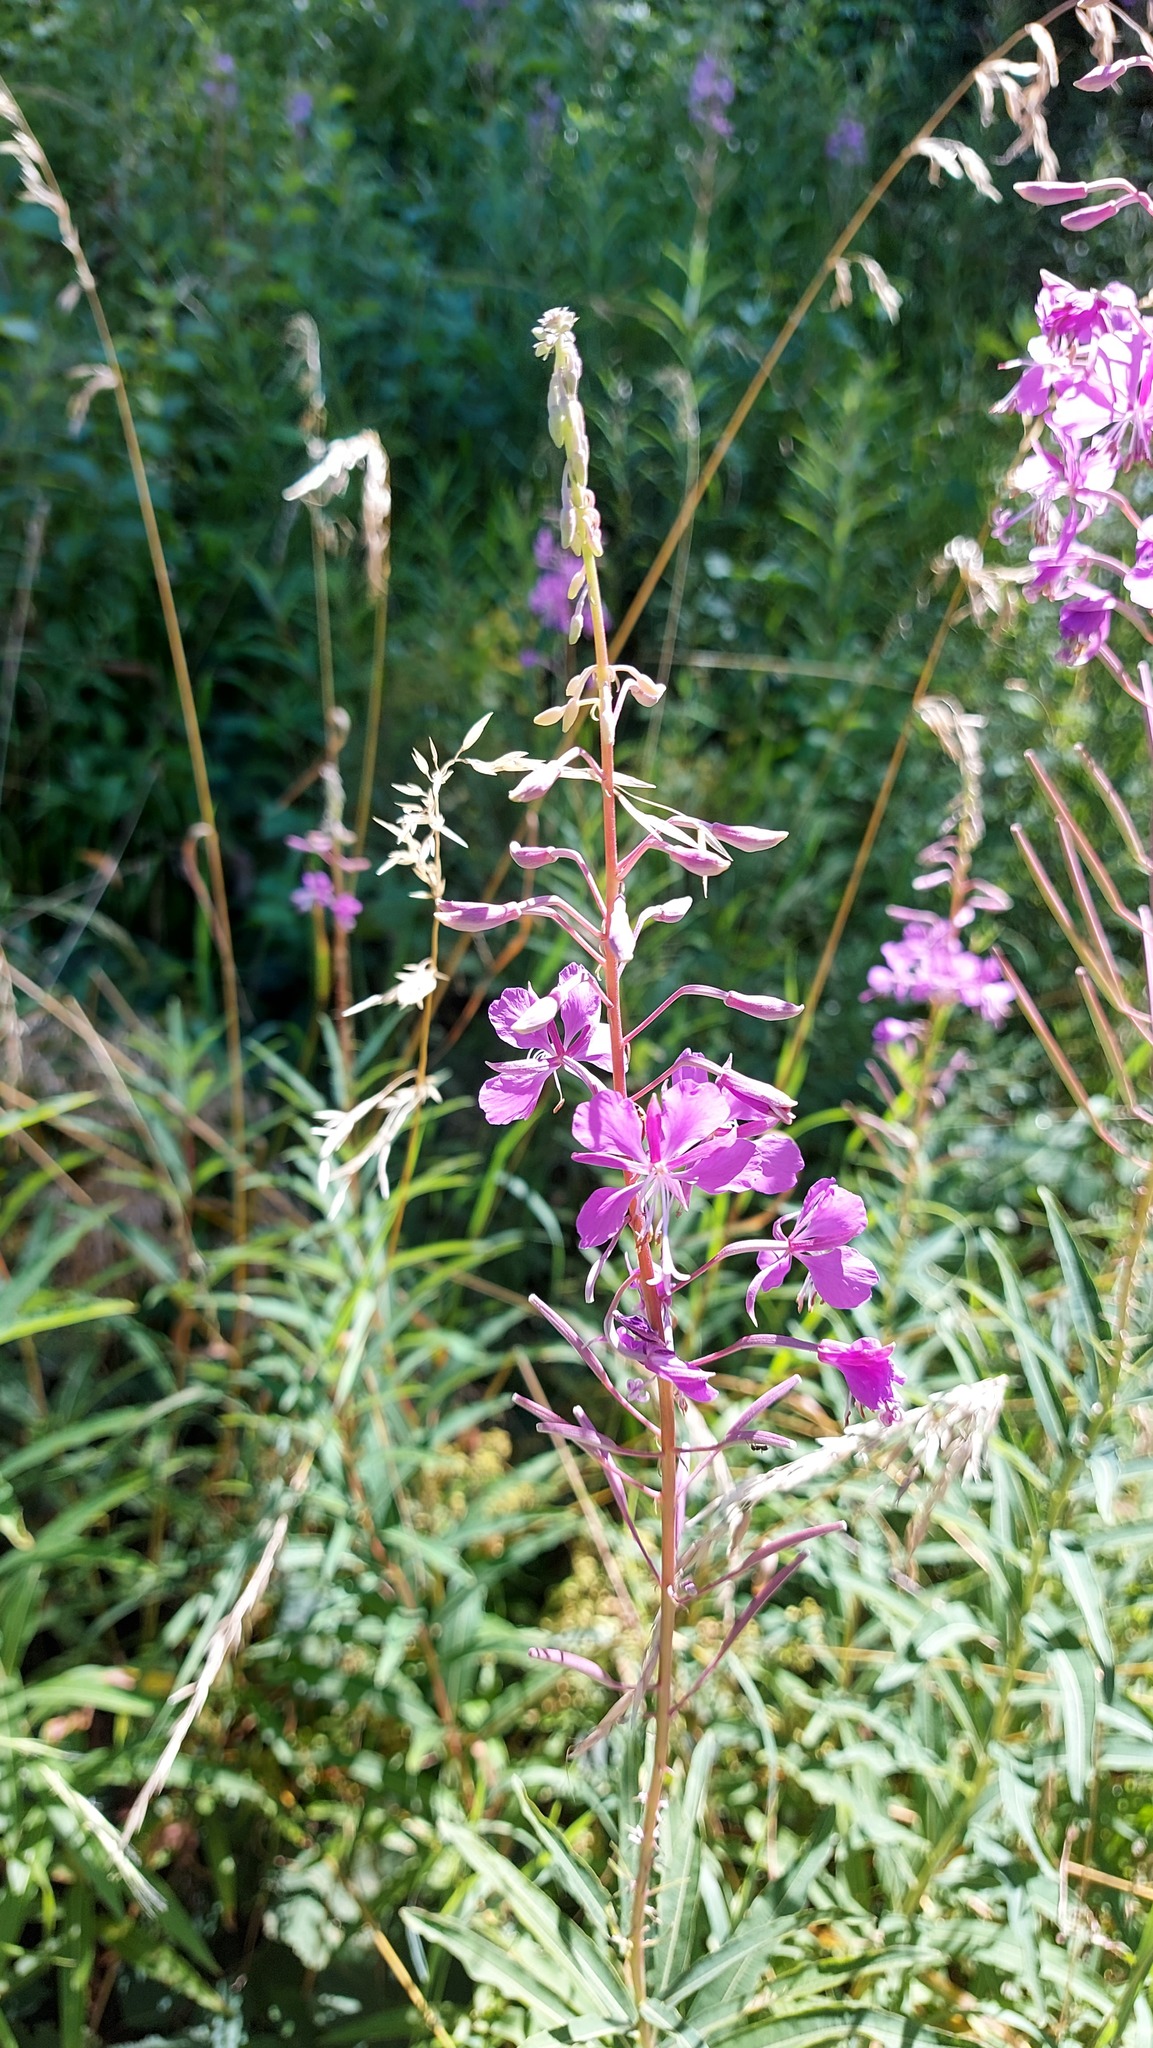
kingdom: Plantae
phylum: Tracheophyta
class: Magnoliopsida
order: Myrtales
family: Onagraceae
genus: Chamaenerion
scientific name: Chamaenerion angustifolium
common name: Fireweed
